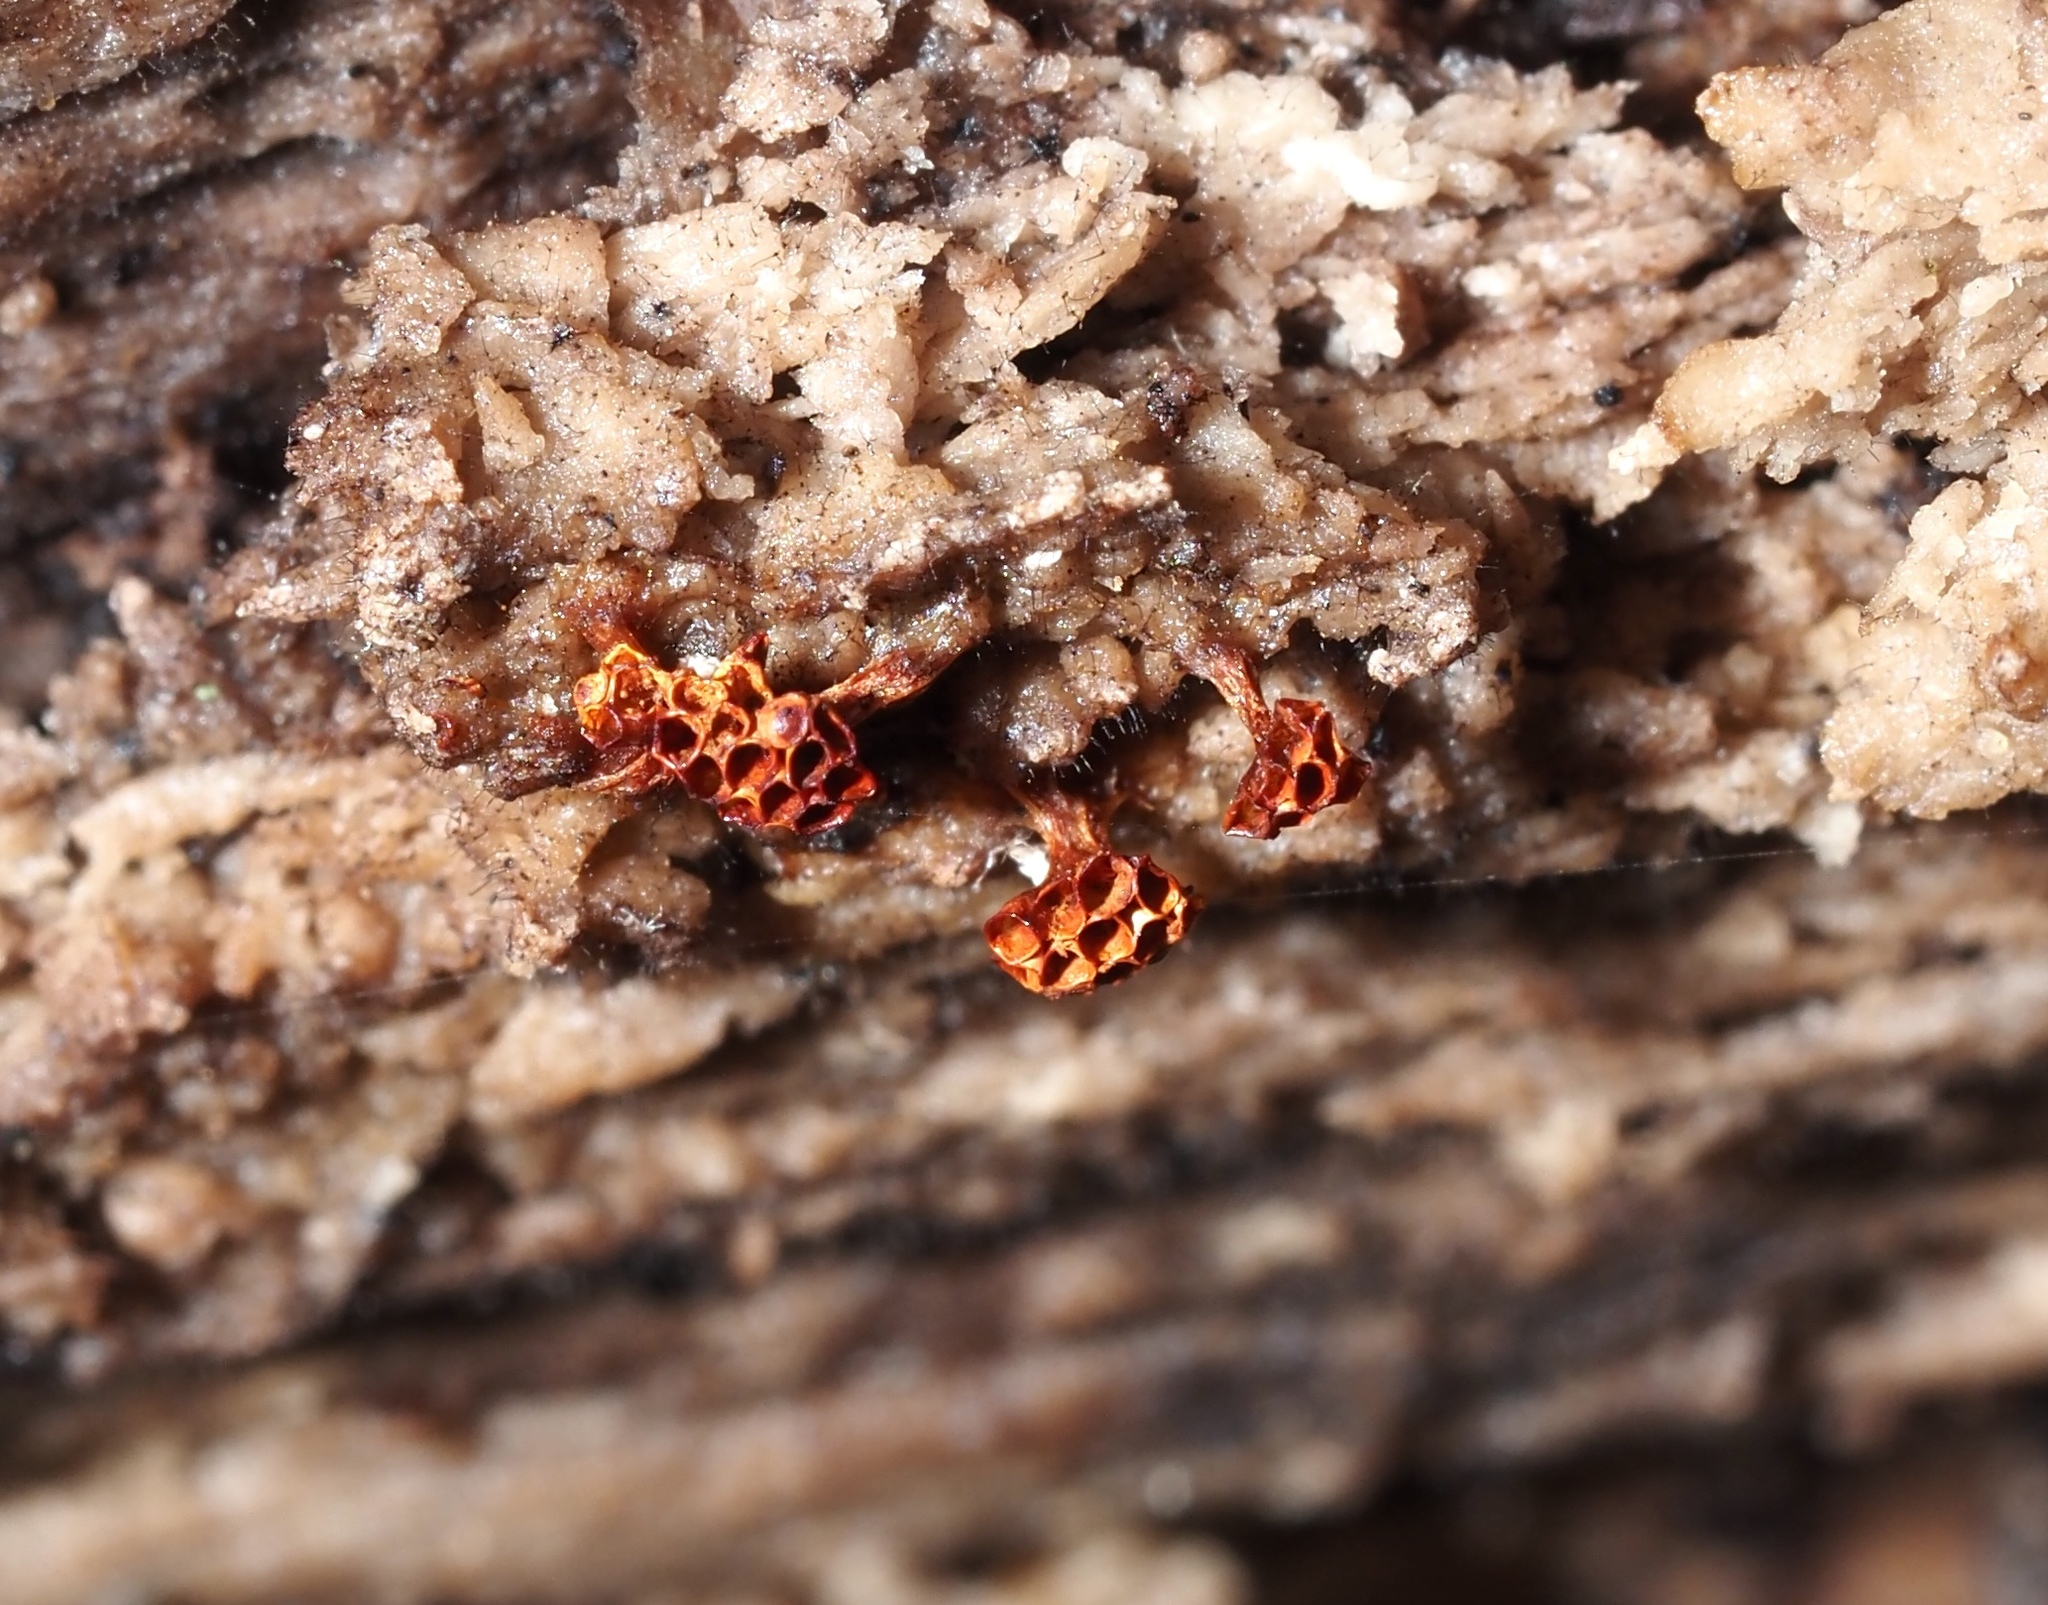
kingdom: Protozoa
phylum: Mycetozoa
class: Myxomycetes
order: Trichiales
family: Trichiaceae
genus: Metatrichia
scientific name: Metatrichia vesparia
